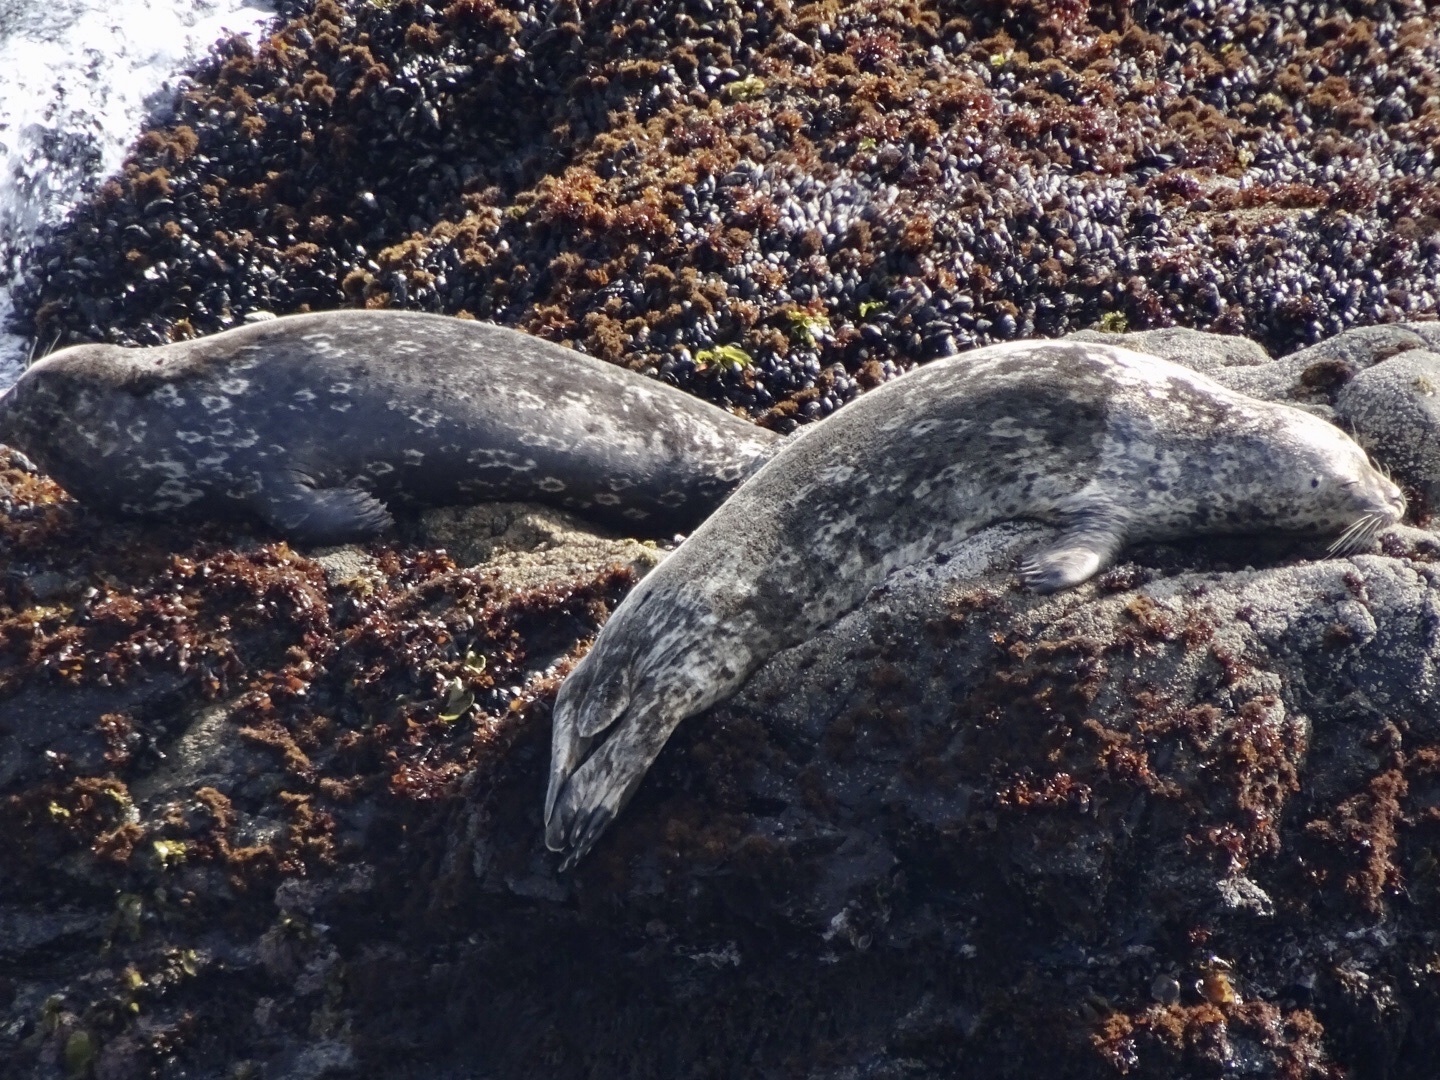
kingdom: Animalia
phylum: Chordata
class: Mammalia
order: Carnivora
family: Phocidae
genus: Phoca
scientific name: Phoca vitulina
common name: Harbor seal
